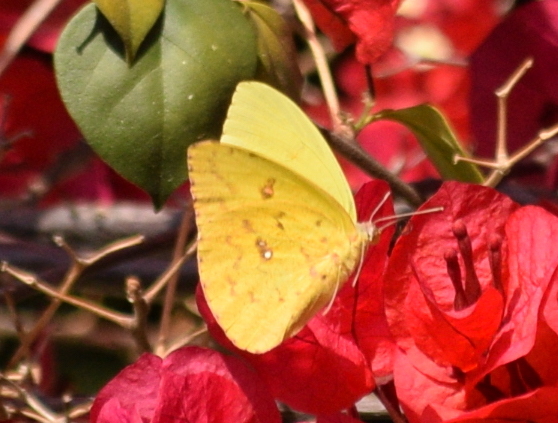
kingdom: Animalia
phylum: Arthropoda
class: Insecta
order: Lepidoptera
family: Pieridae
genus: Phoebis
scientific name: Phoebis sennae
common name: Cloudless sulphur
